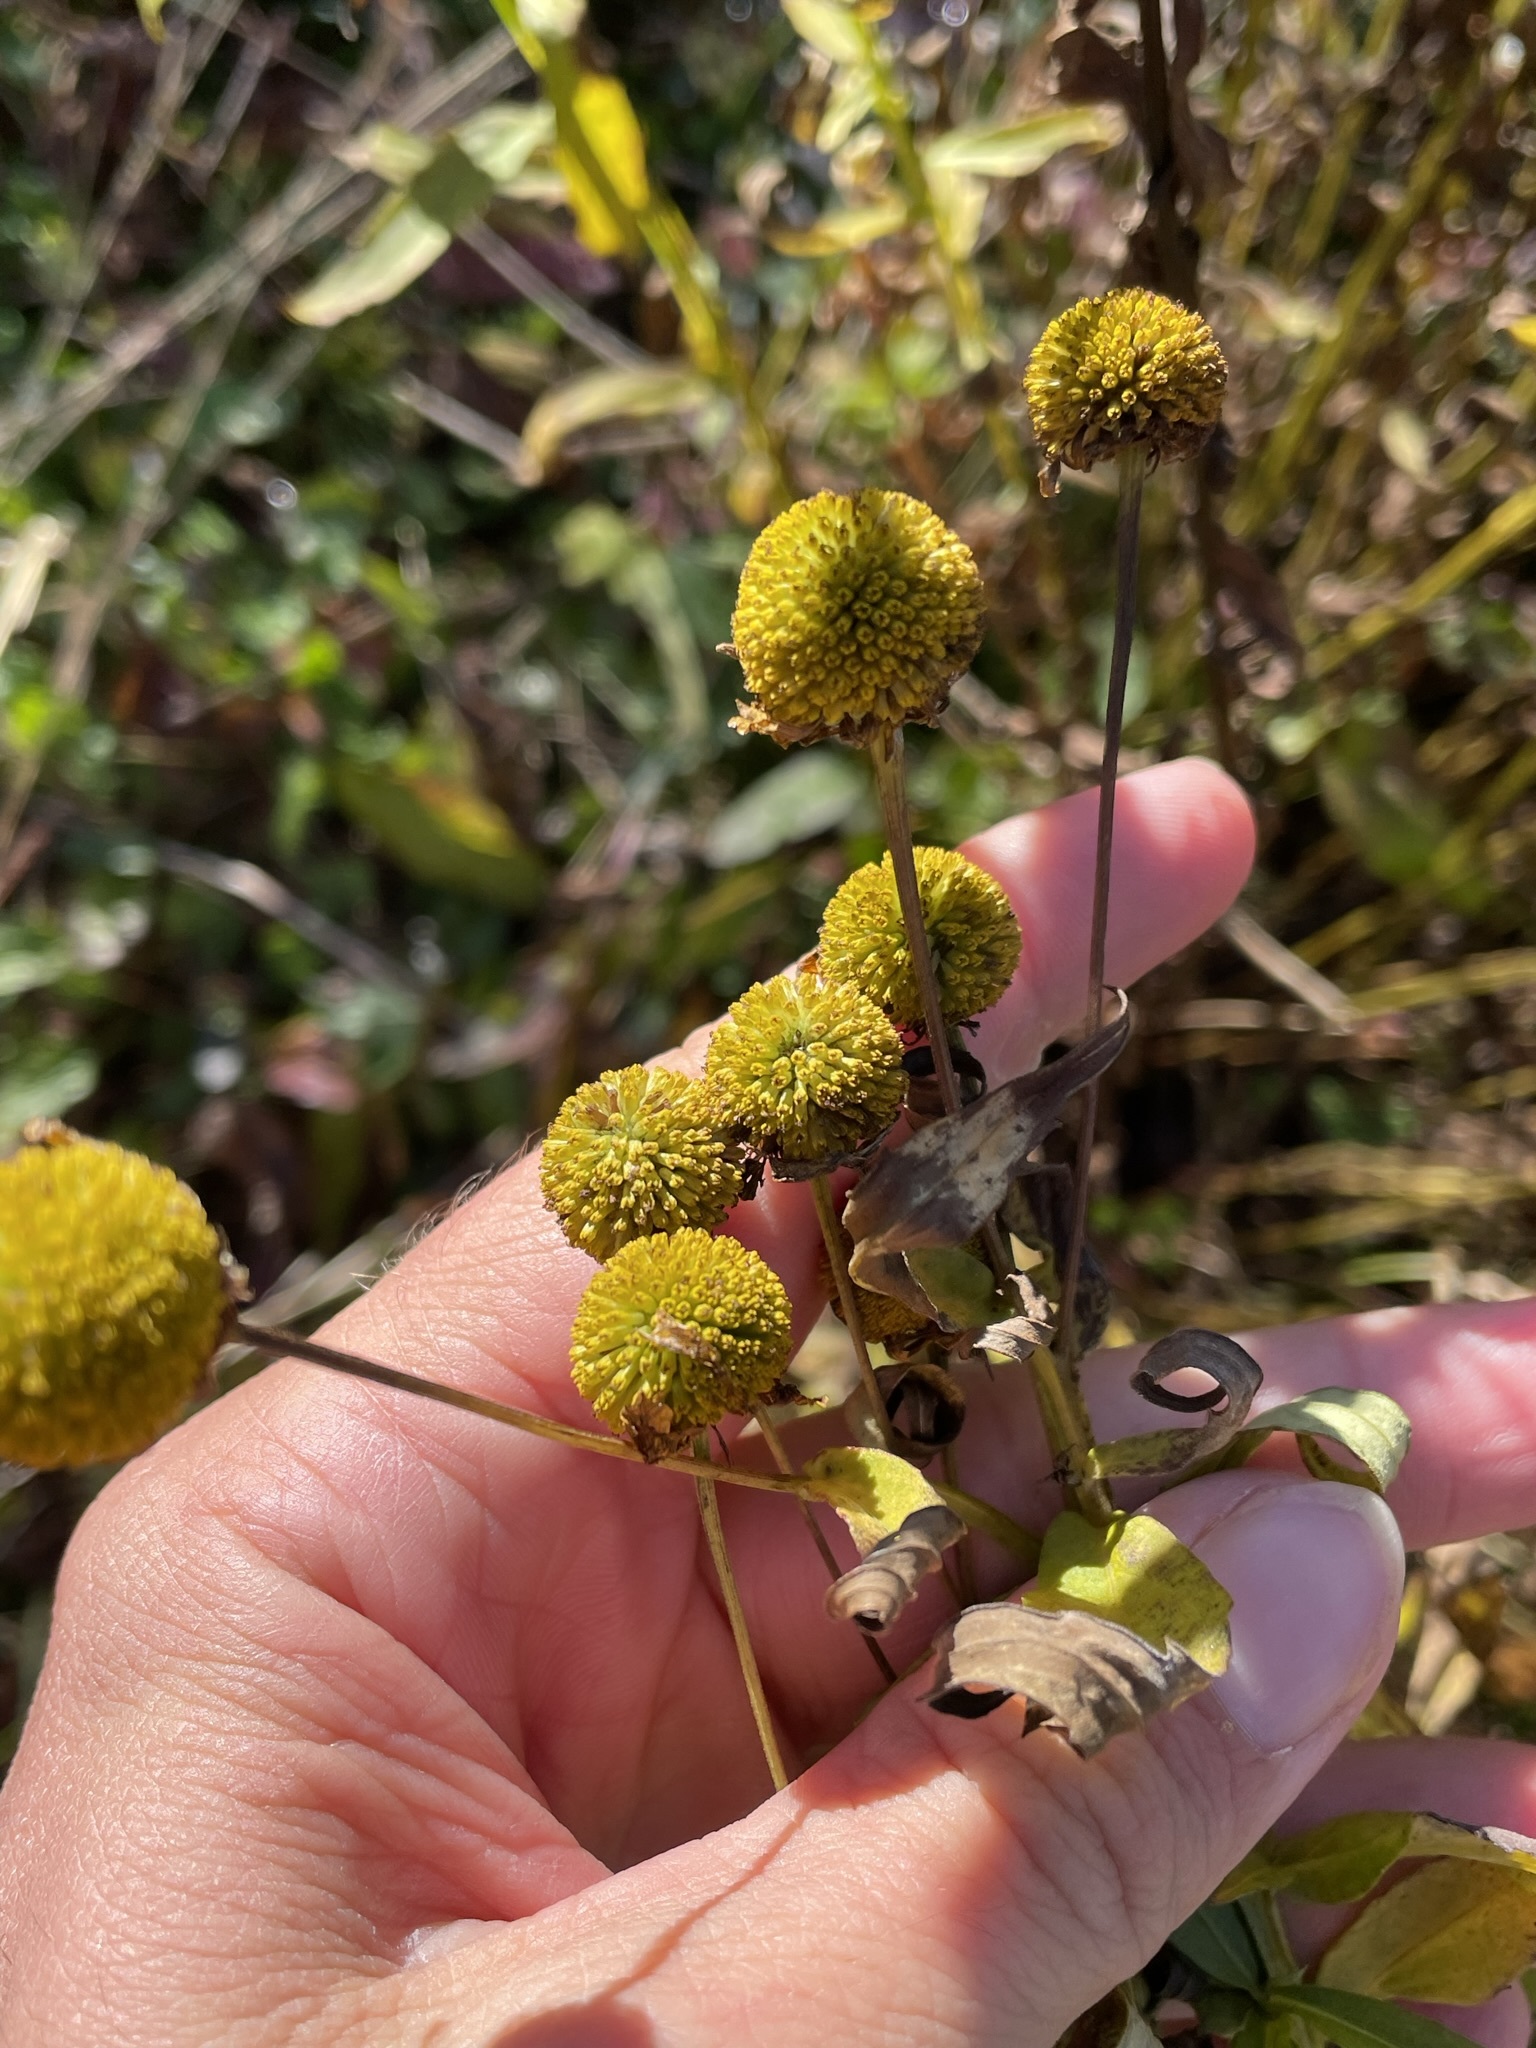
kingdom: Plantae
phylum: Tracheophyta
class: Magnoliopsida
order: Asterales
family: Asteraceae
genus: Helenium
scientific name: Helenium autumnale
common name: Sneezeweed
